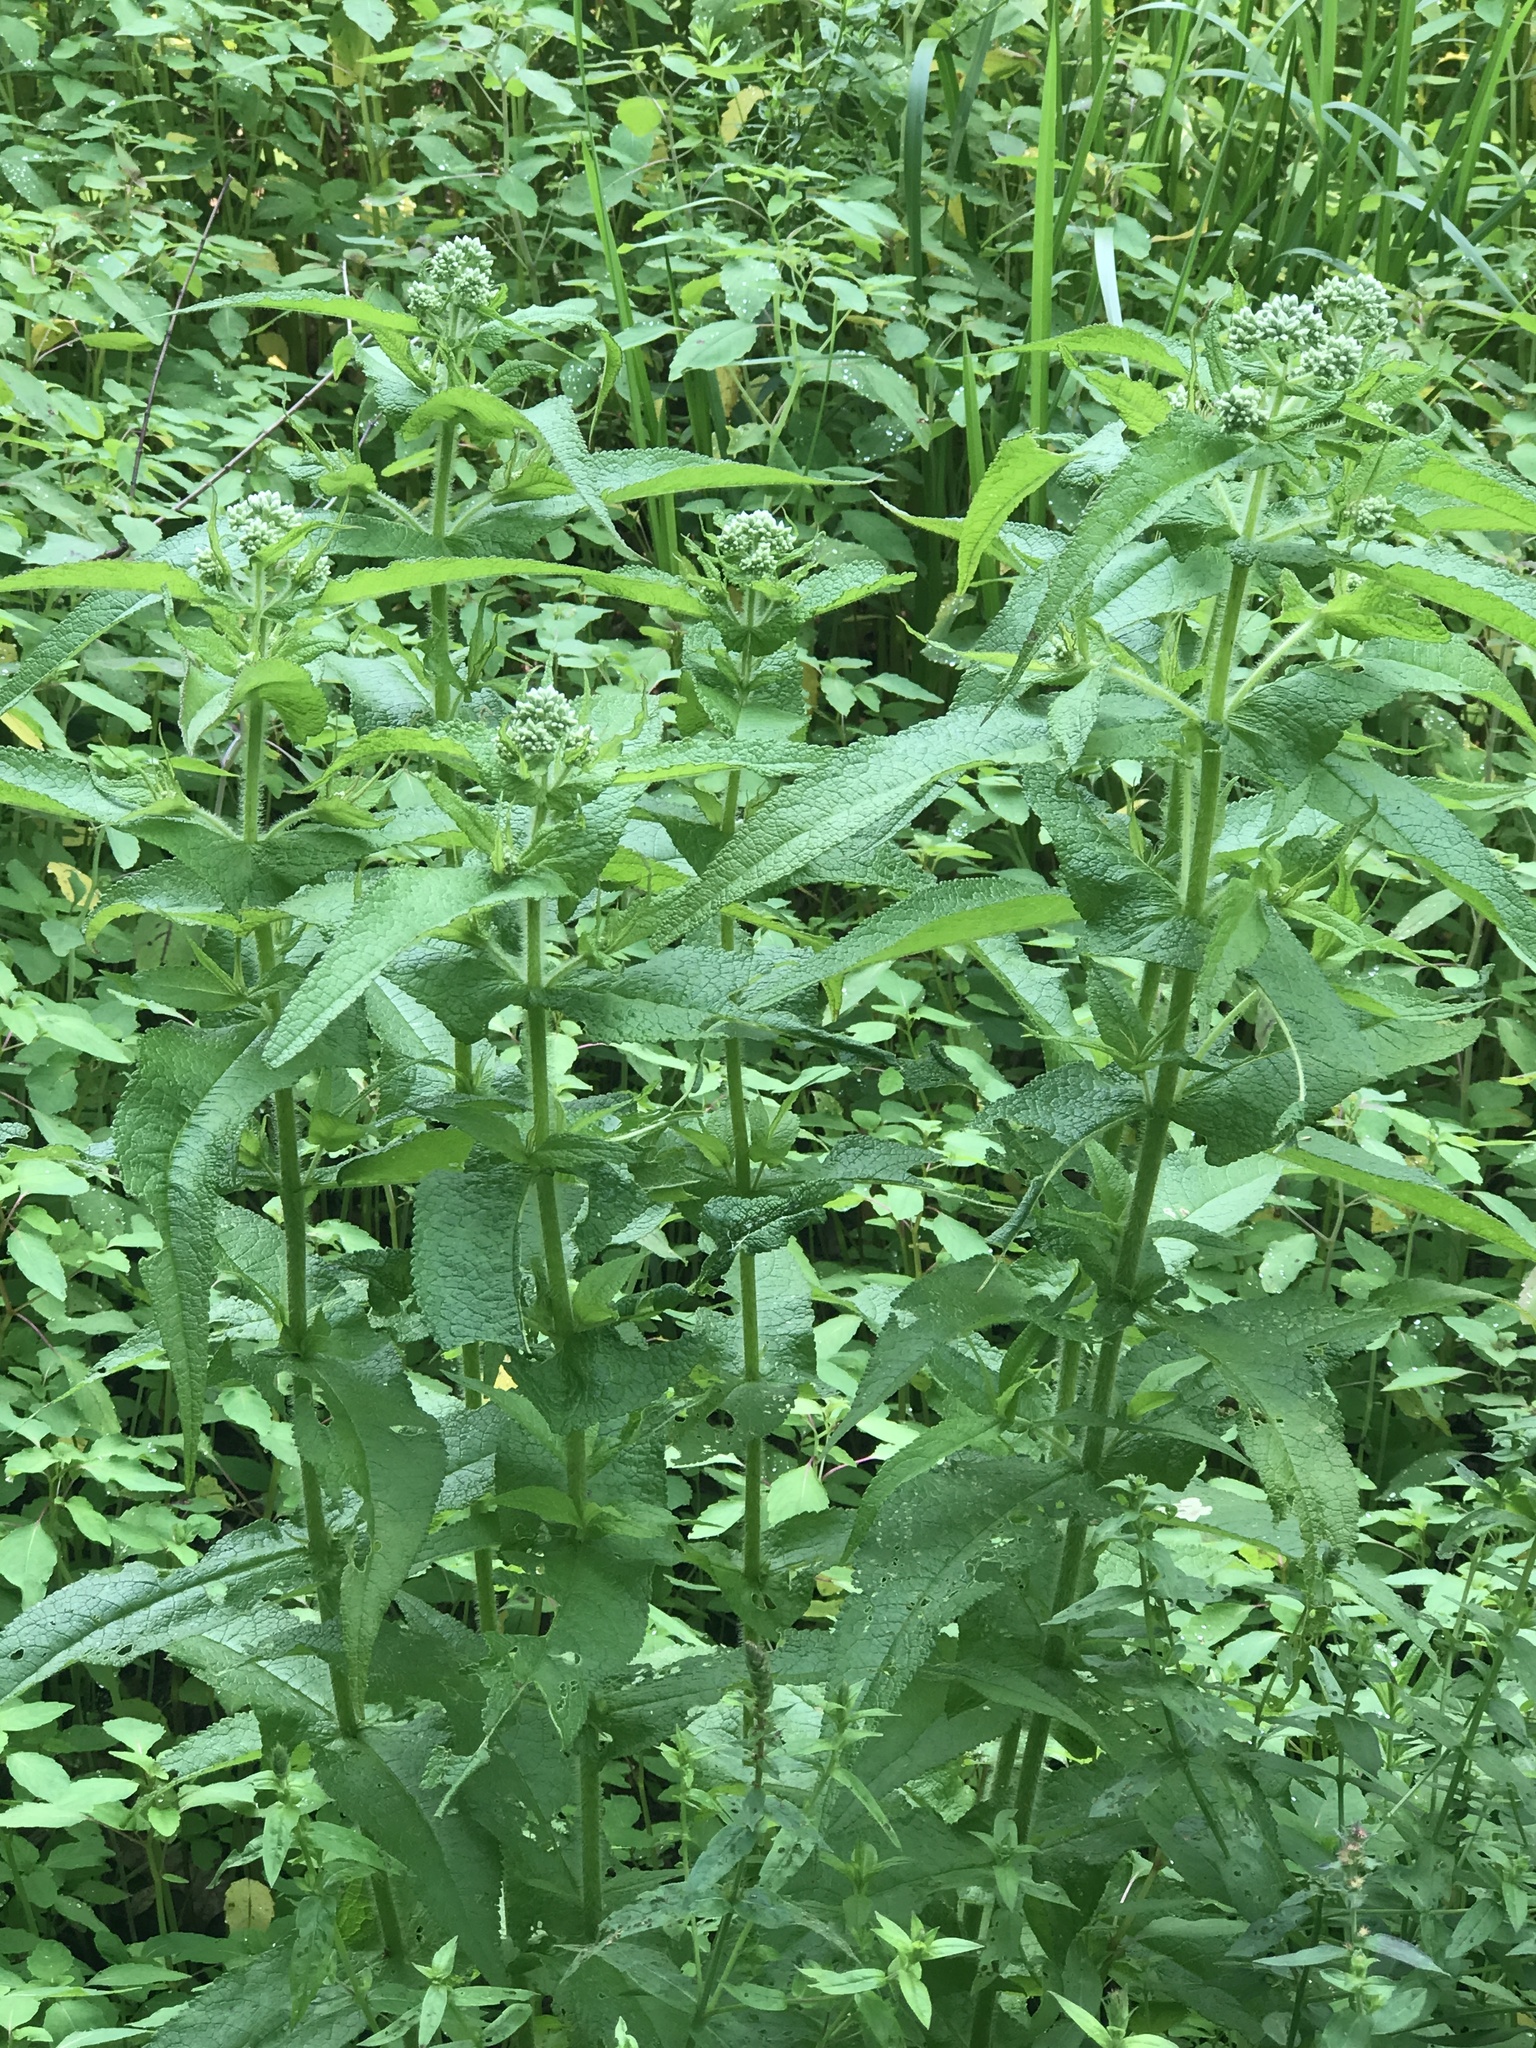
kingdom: Plantae
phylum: Tracheophyta
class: Magnoliopsida
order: Asterales
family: Asteraceae
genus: Eupatorium
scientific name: Eupatorium perfoliatum
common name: Boneset
